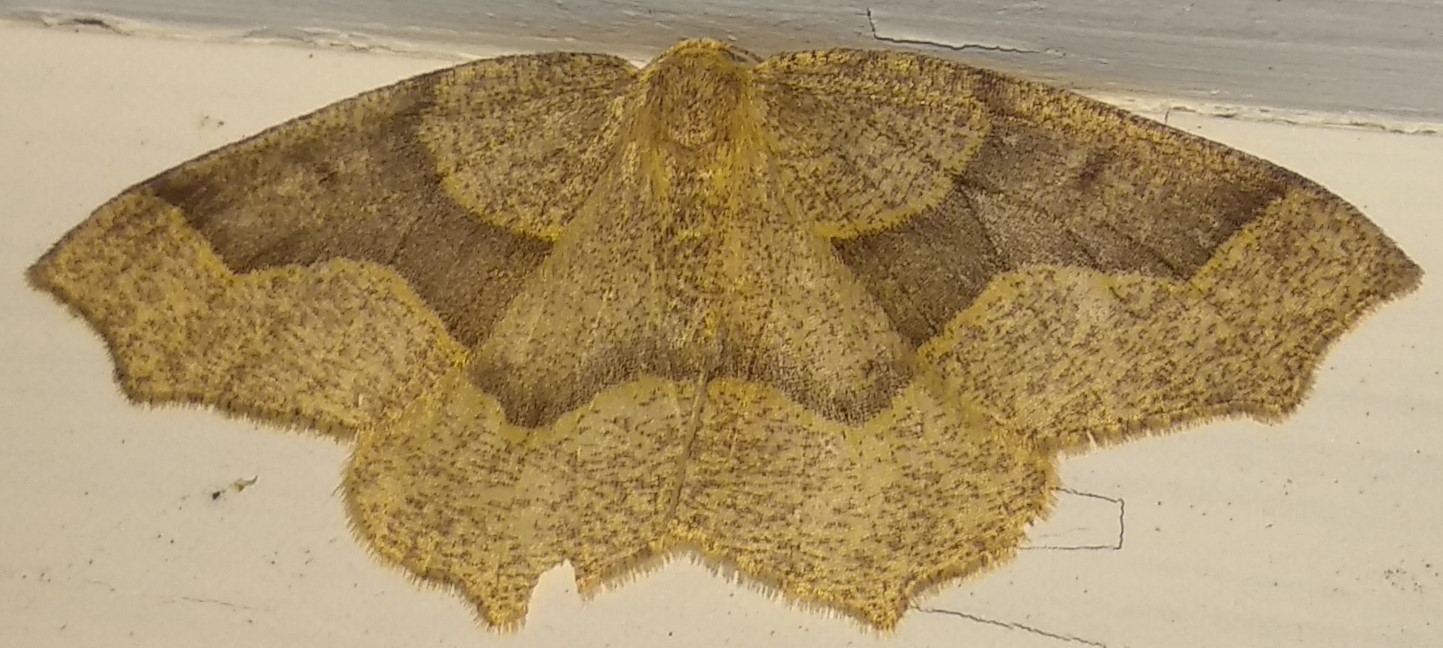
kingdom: Animalia
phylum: Arthropoda
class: Insecta
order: Lepidoptera
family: Geometridae
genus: Lambdina
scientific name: Lambdina fiscellaria
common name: Hemlock looper
